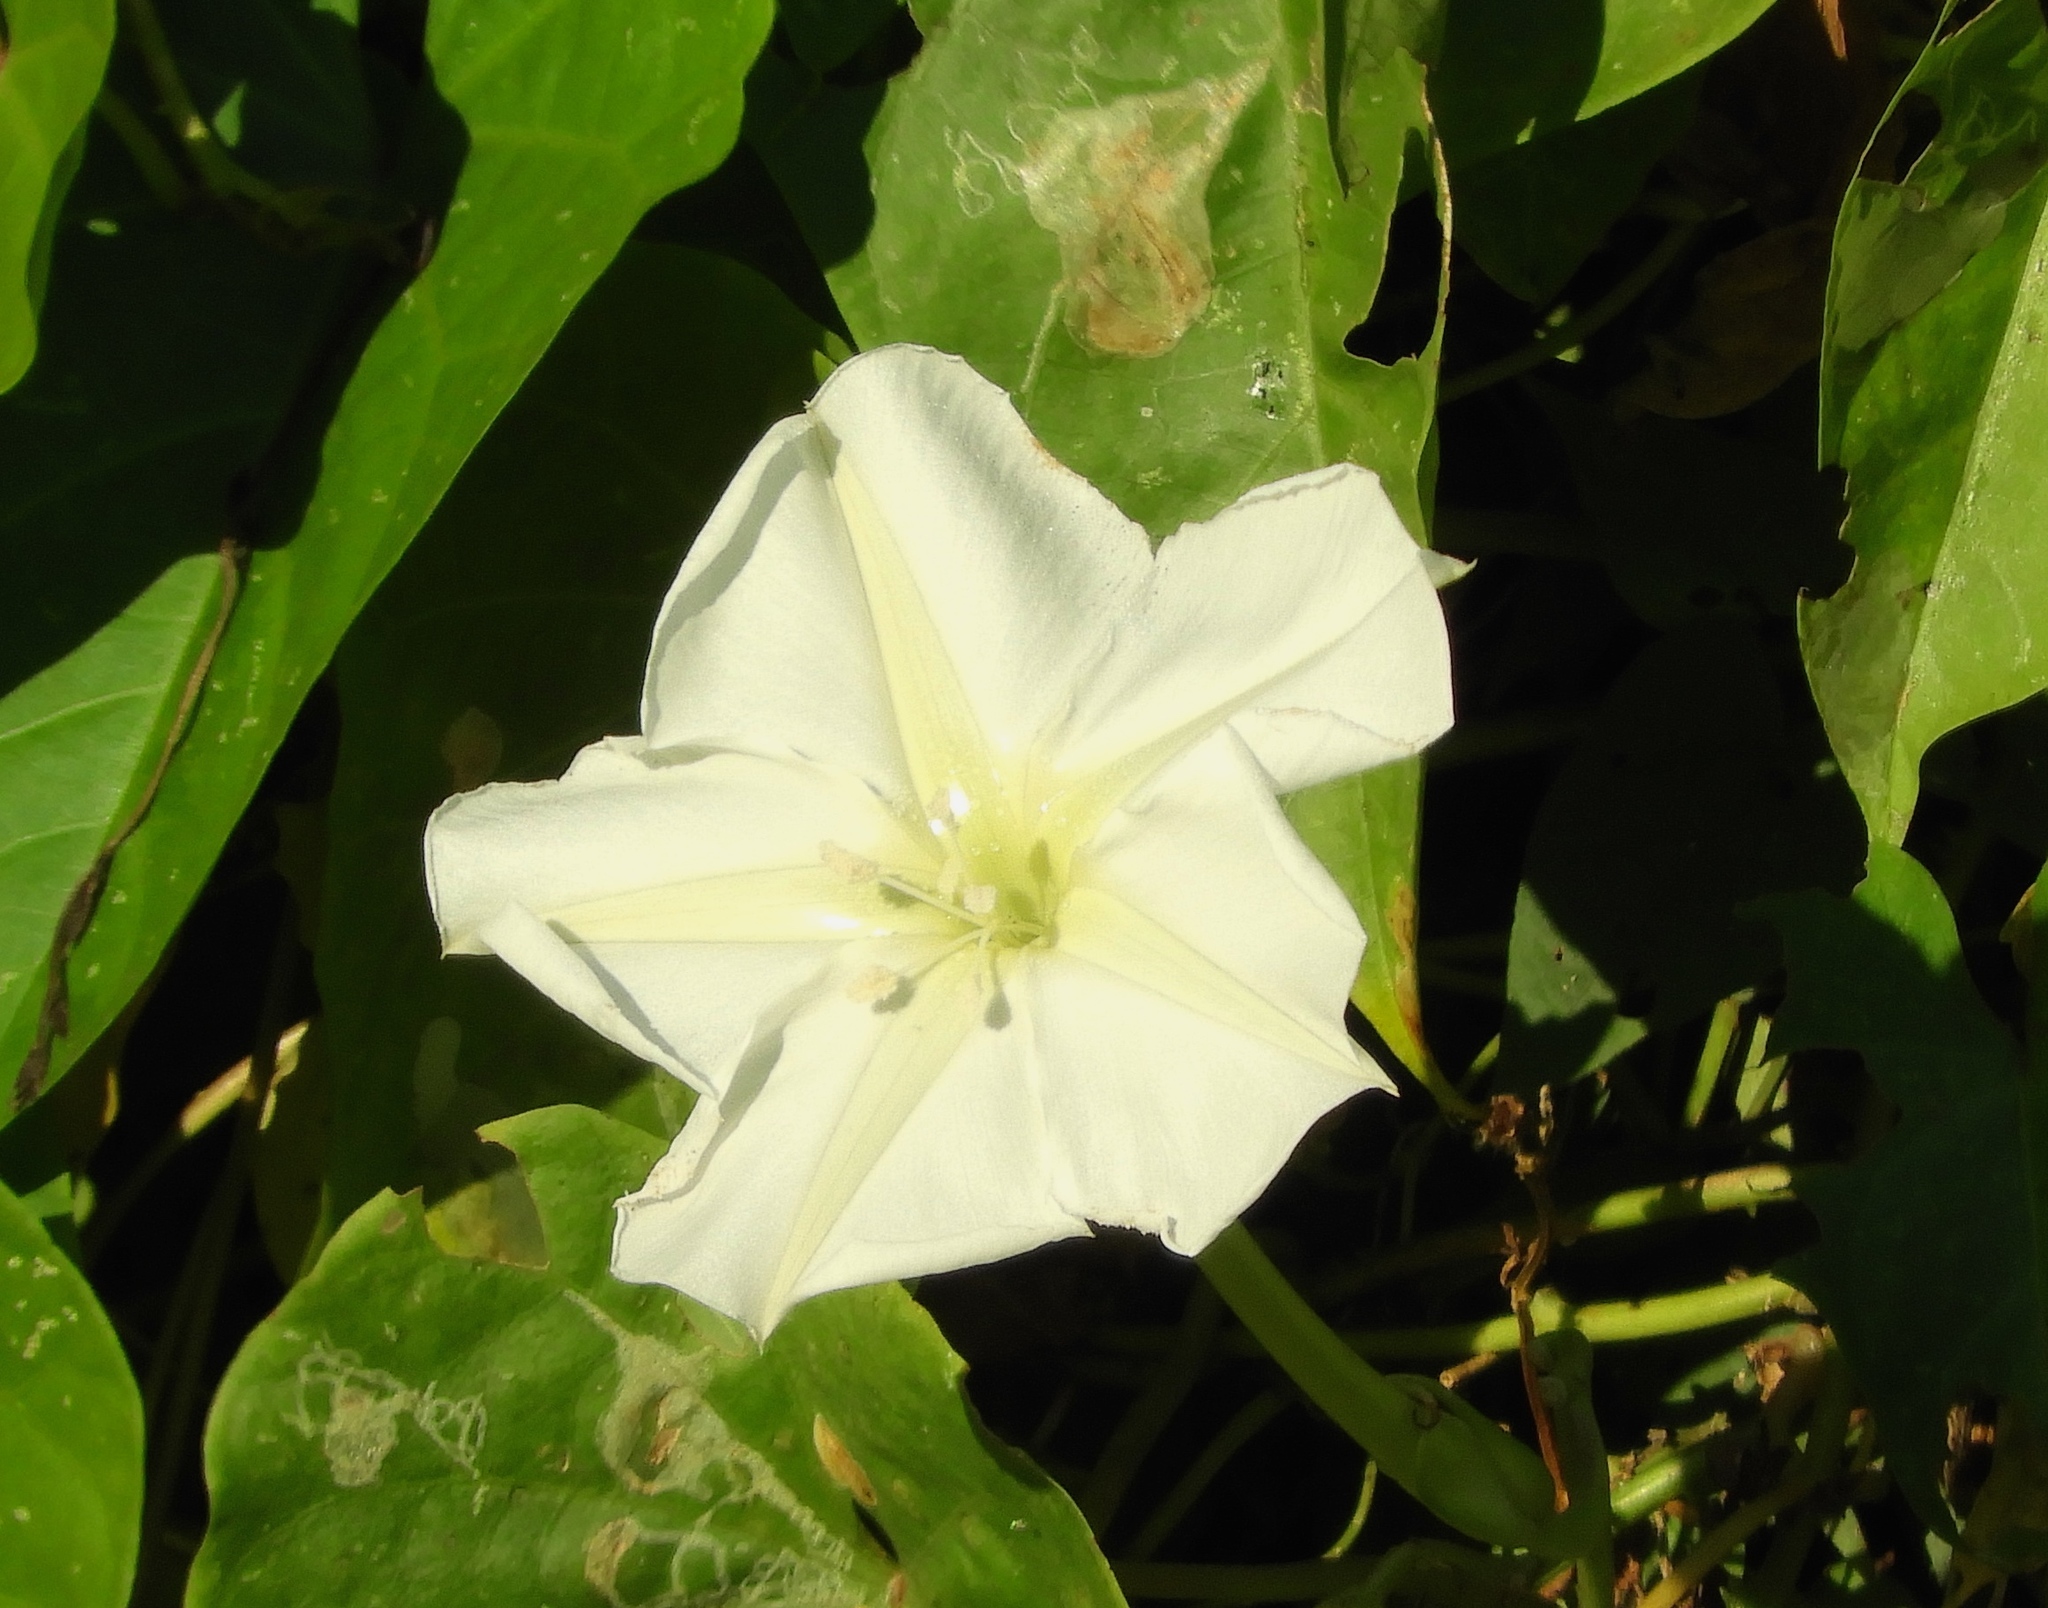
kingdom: Plantae
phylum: Tracheophyta
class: Magnoliopsida
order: Solanales
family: Convolvulaceae
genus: Ipomoea
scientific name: Ipomoea alba
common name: Moonflower
